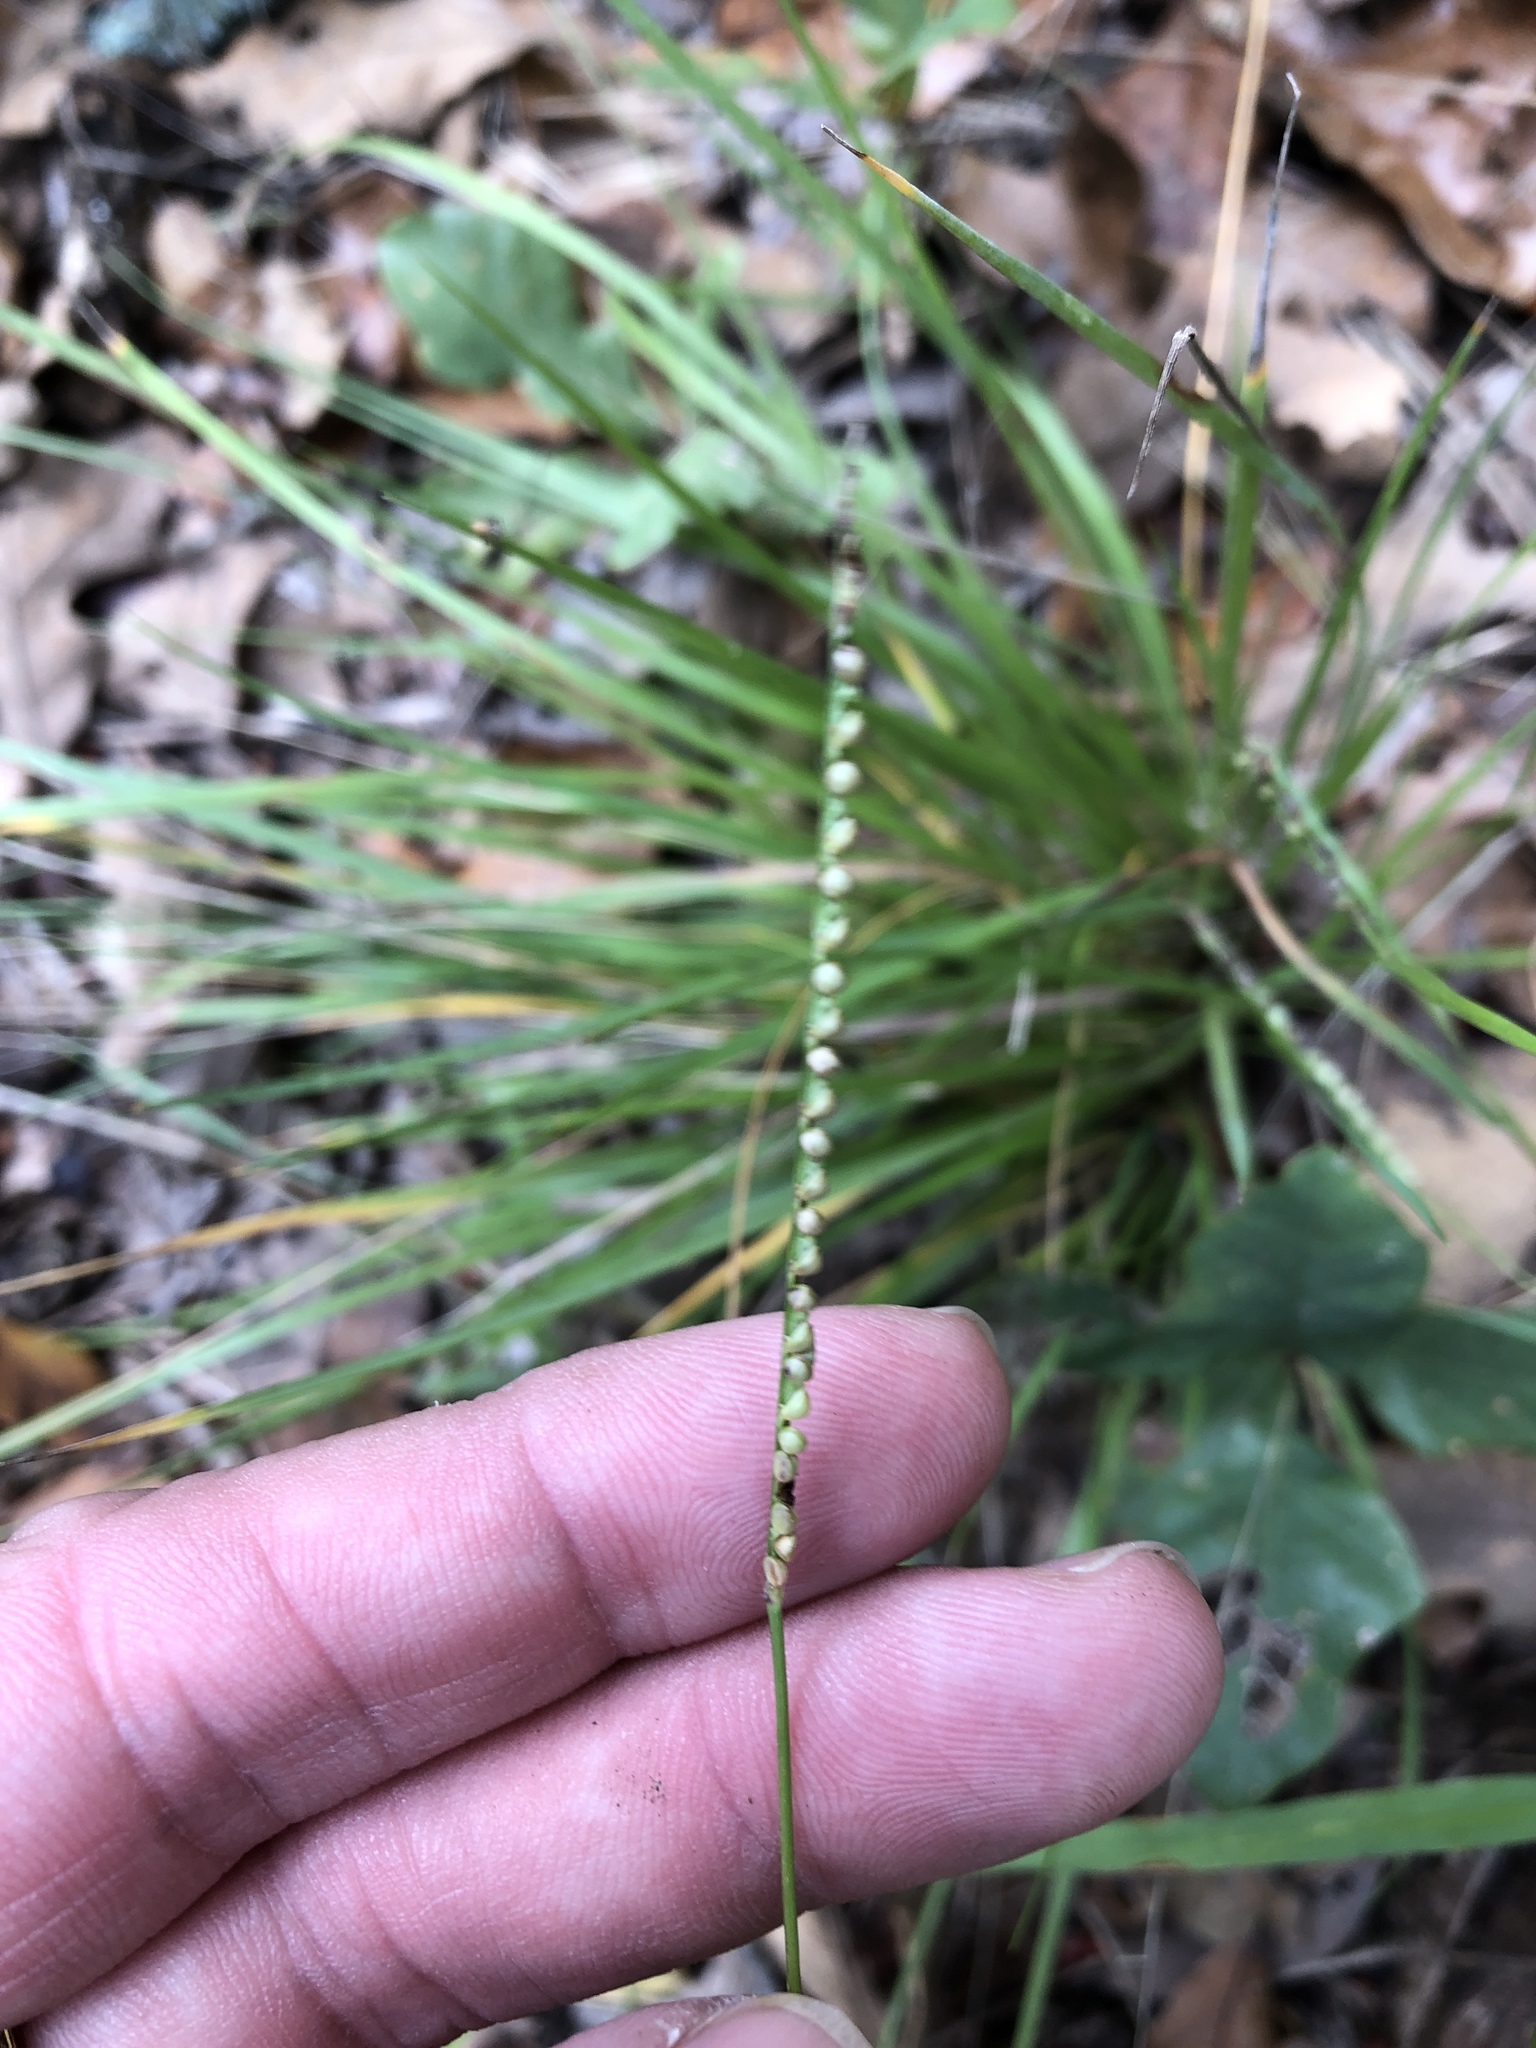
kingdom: Plantae
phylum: Tracheophyta
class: Liliopsida
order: Poales
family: Poaceae
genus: Paspalum
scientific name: Paspalum setaceum
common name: Slender paspalum
